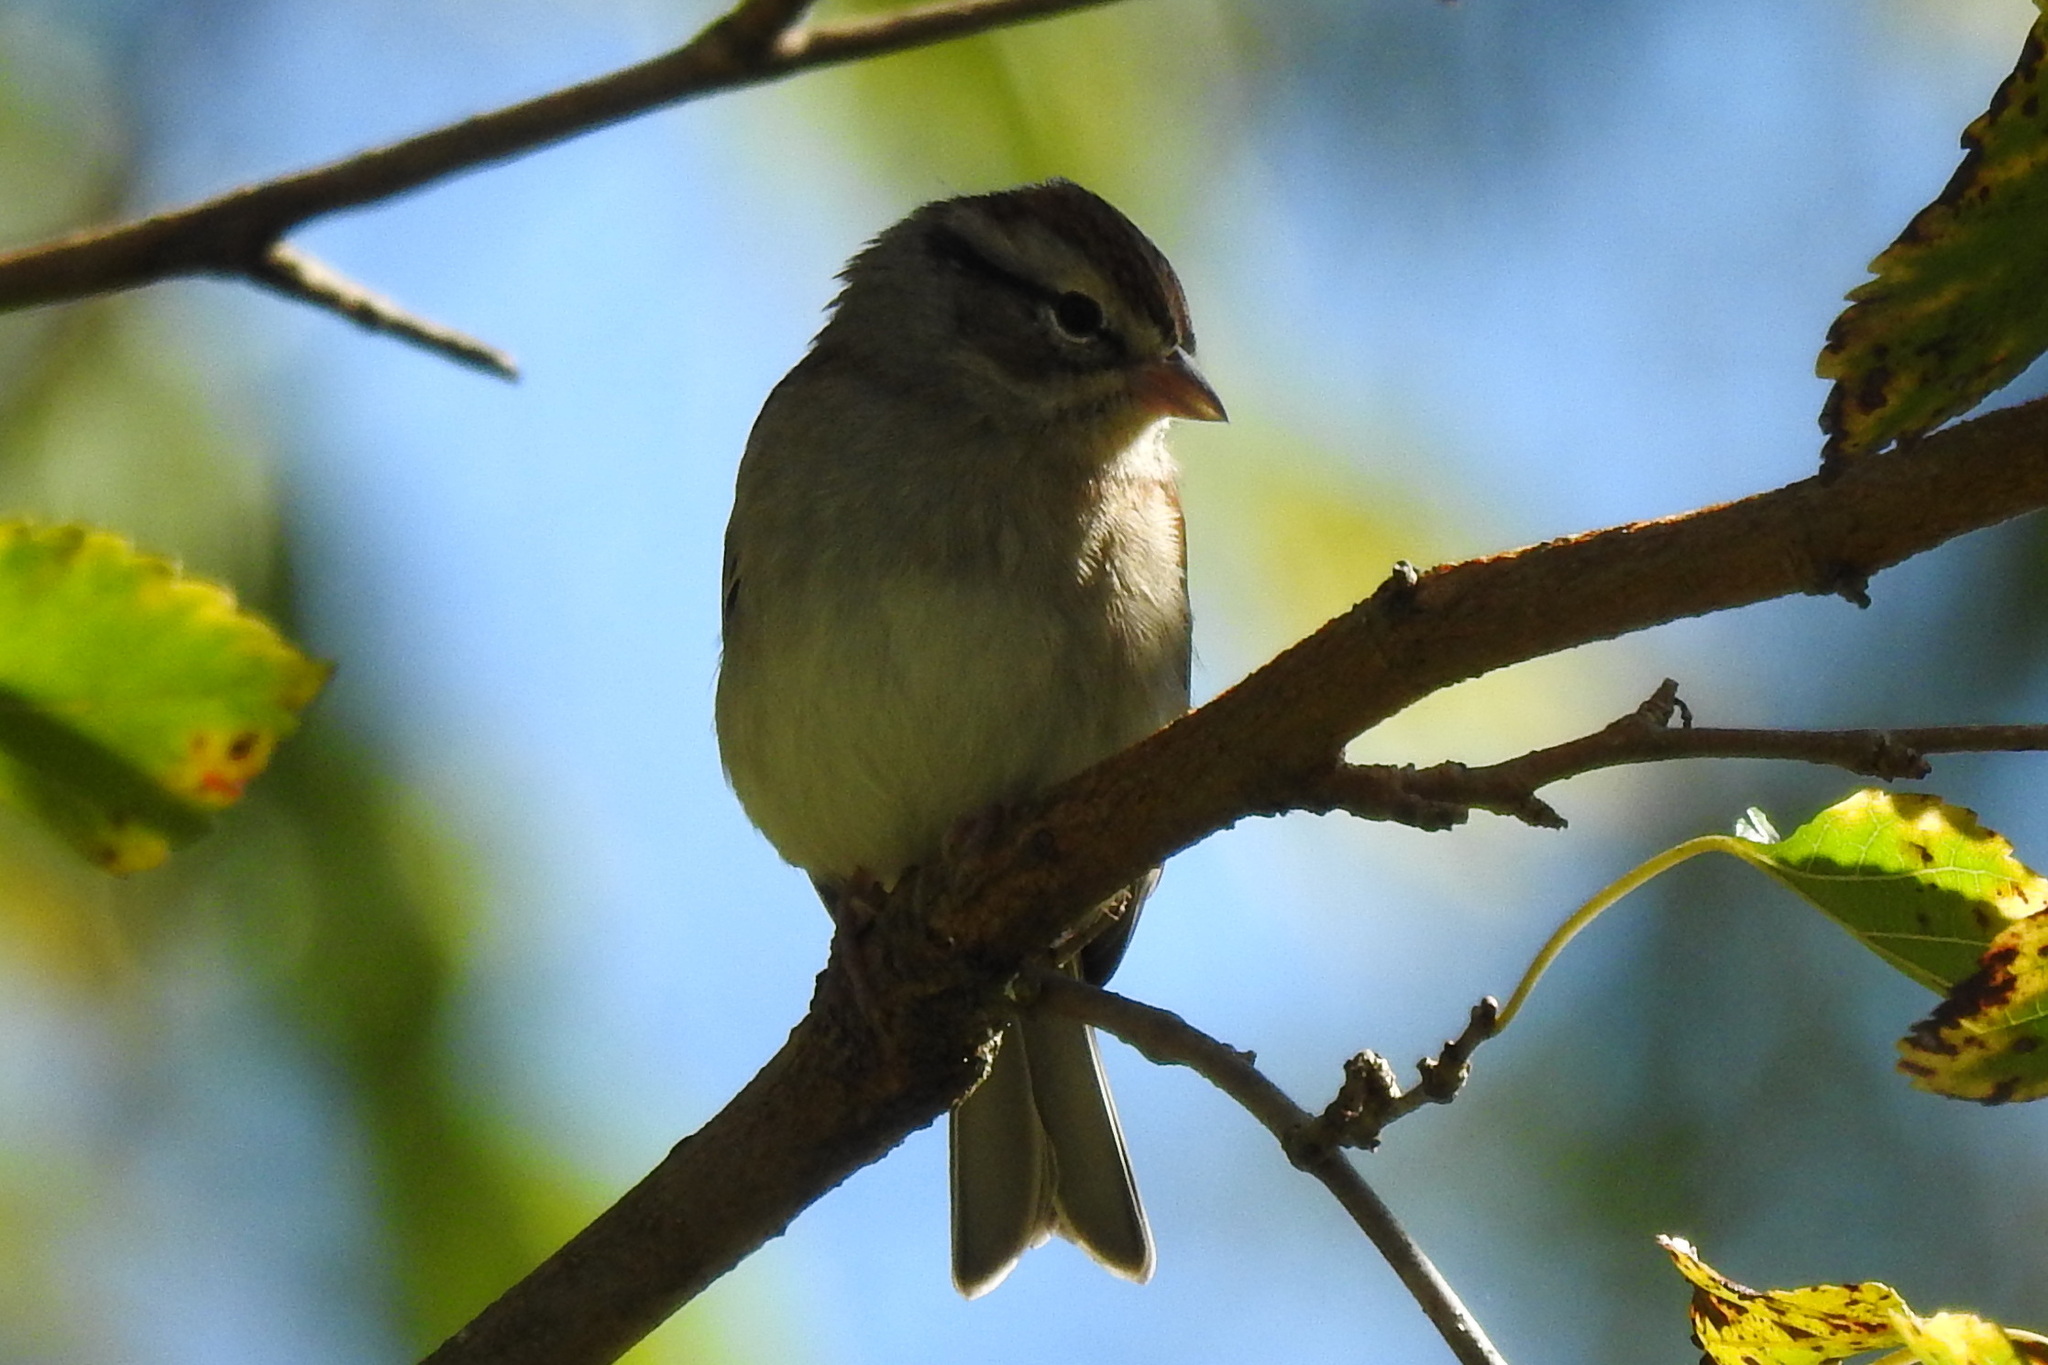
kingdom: Animalia
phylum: Chordata
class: Aves
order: Passeriformes
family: Passerellidae
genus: Spizella
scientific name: Spizella passerina
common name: Chipping sparrow
